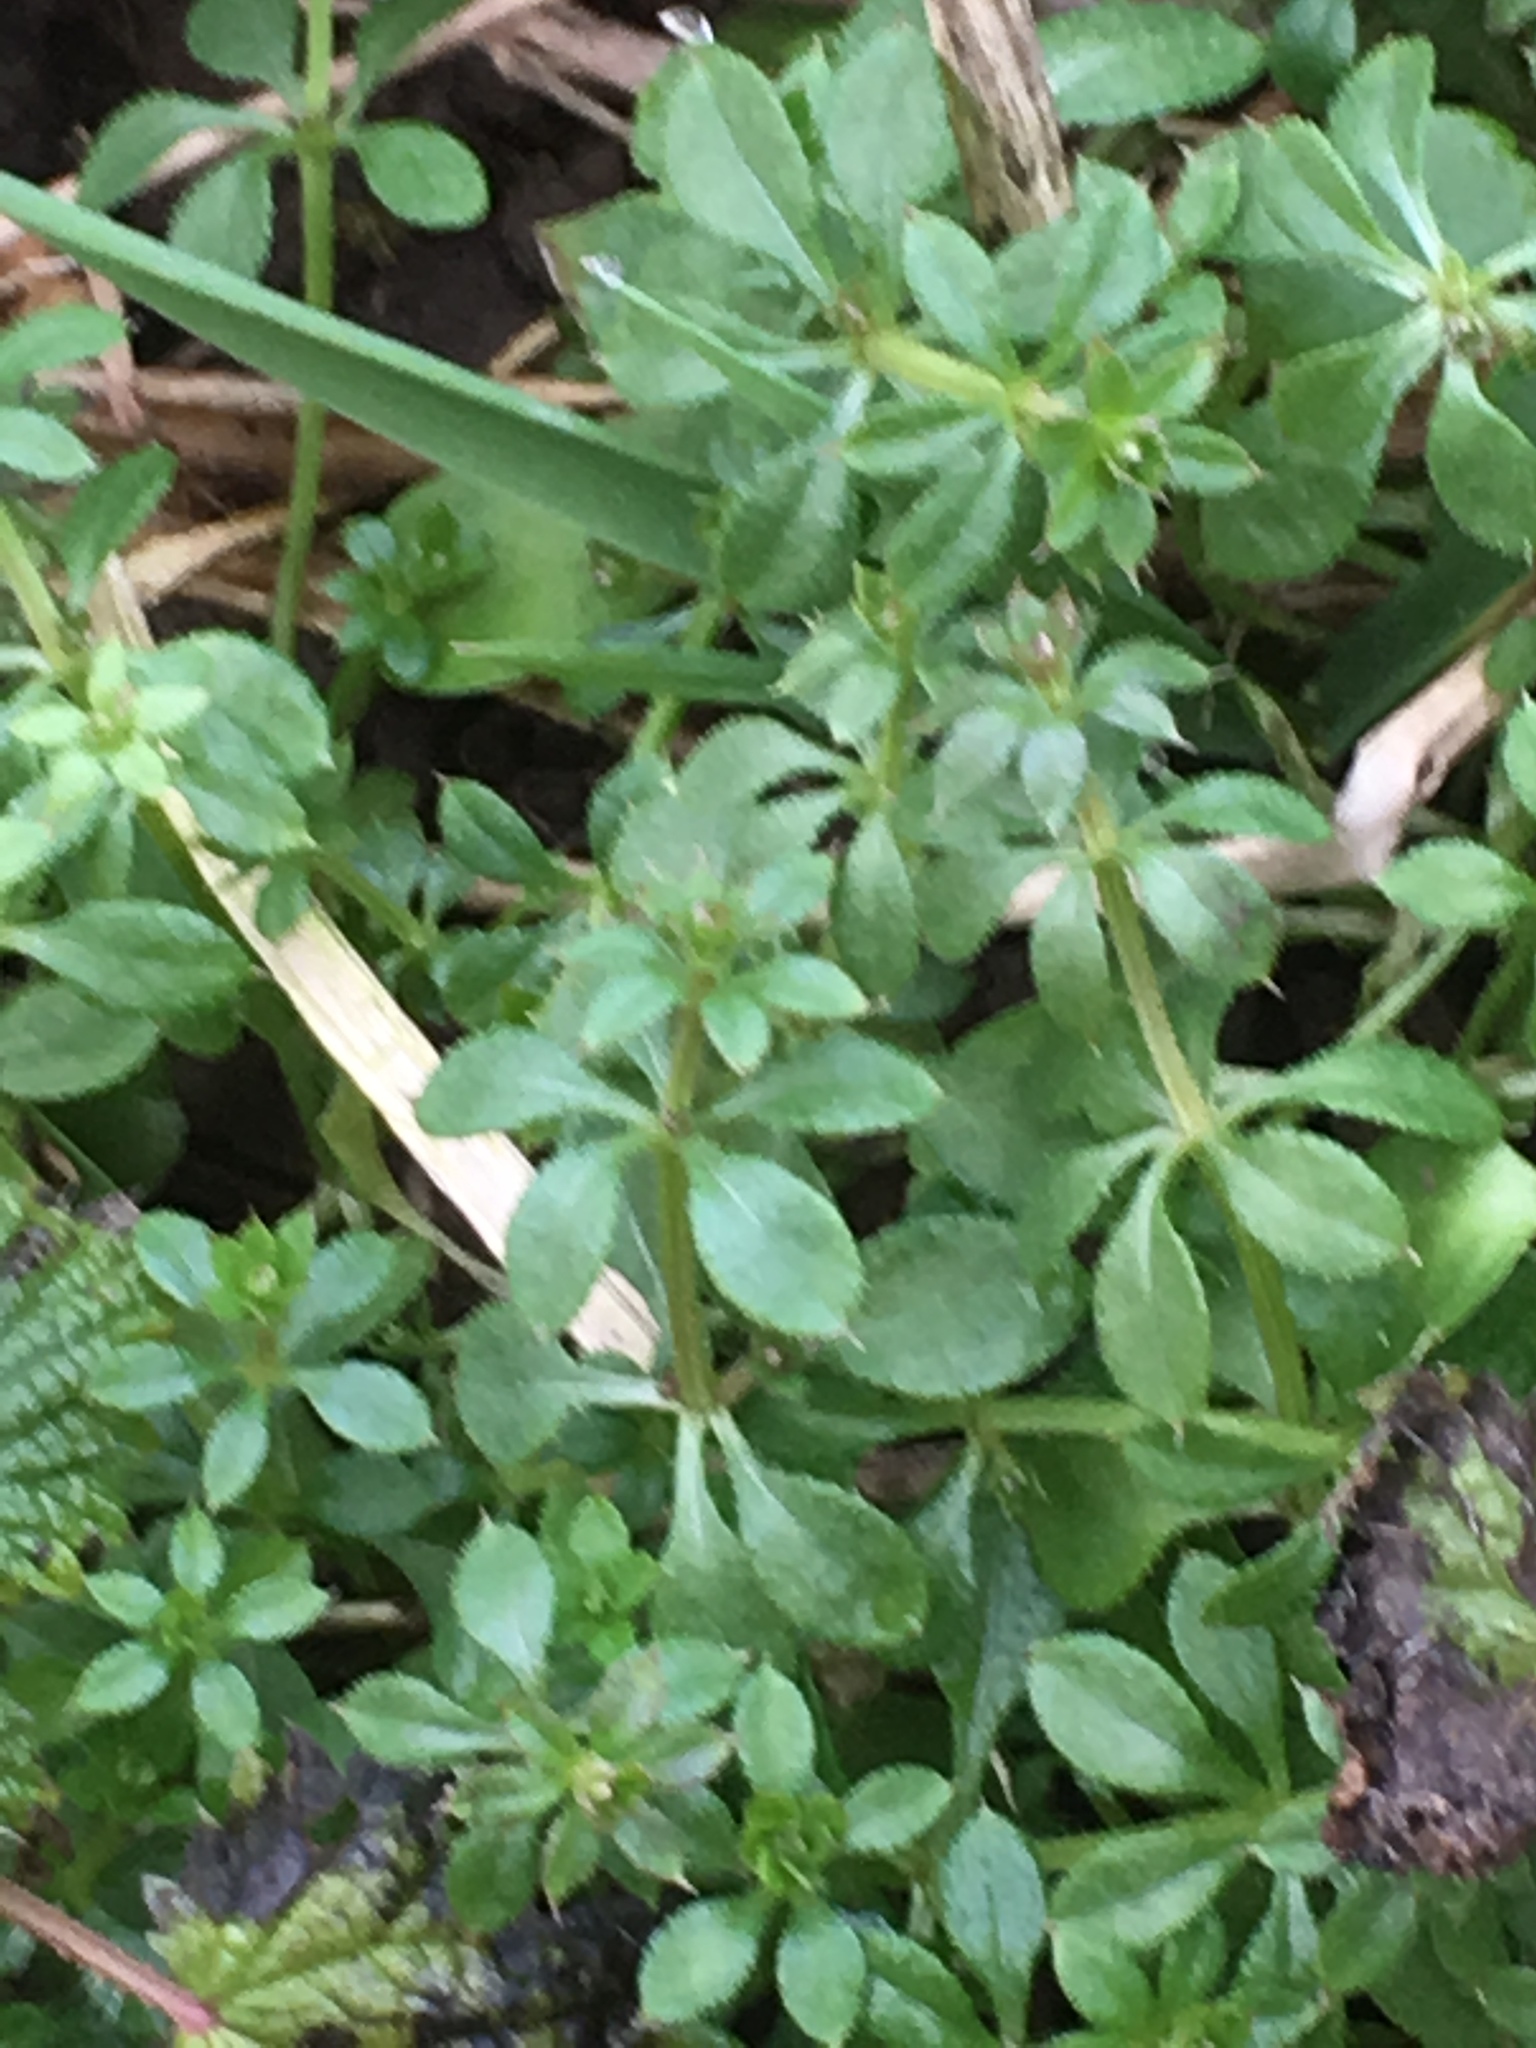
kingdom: Plantae
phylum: Tracheophyta
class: Magnoliopsida
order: Gentianales
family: Rubiaceae
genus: Galium
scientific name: Galium aparine
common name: Cleavers
